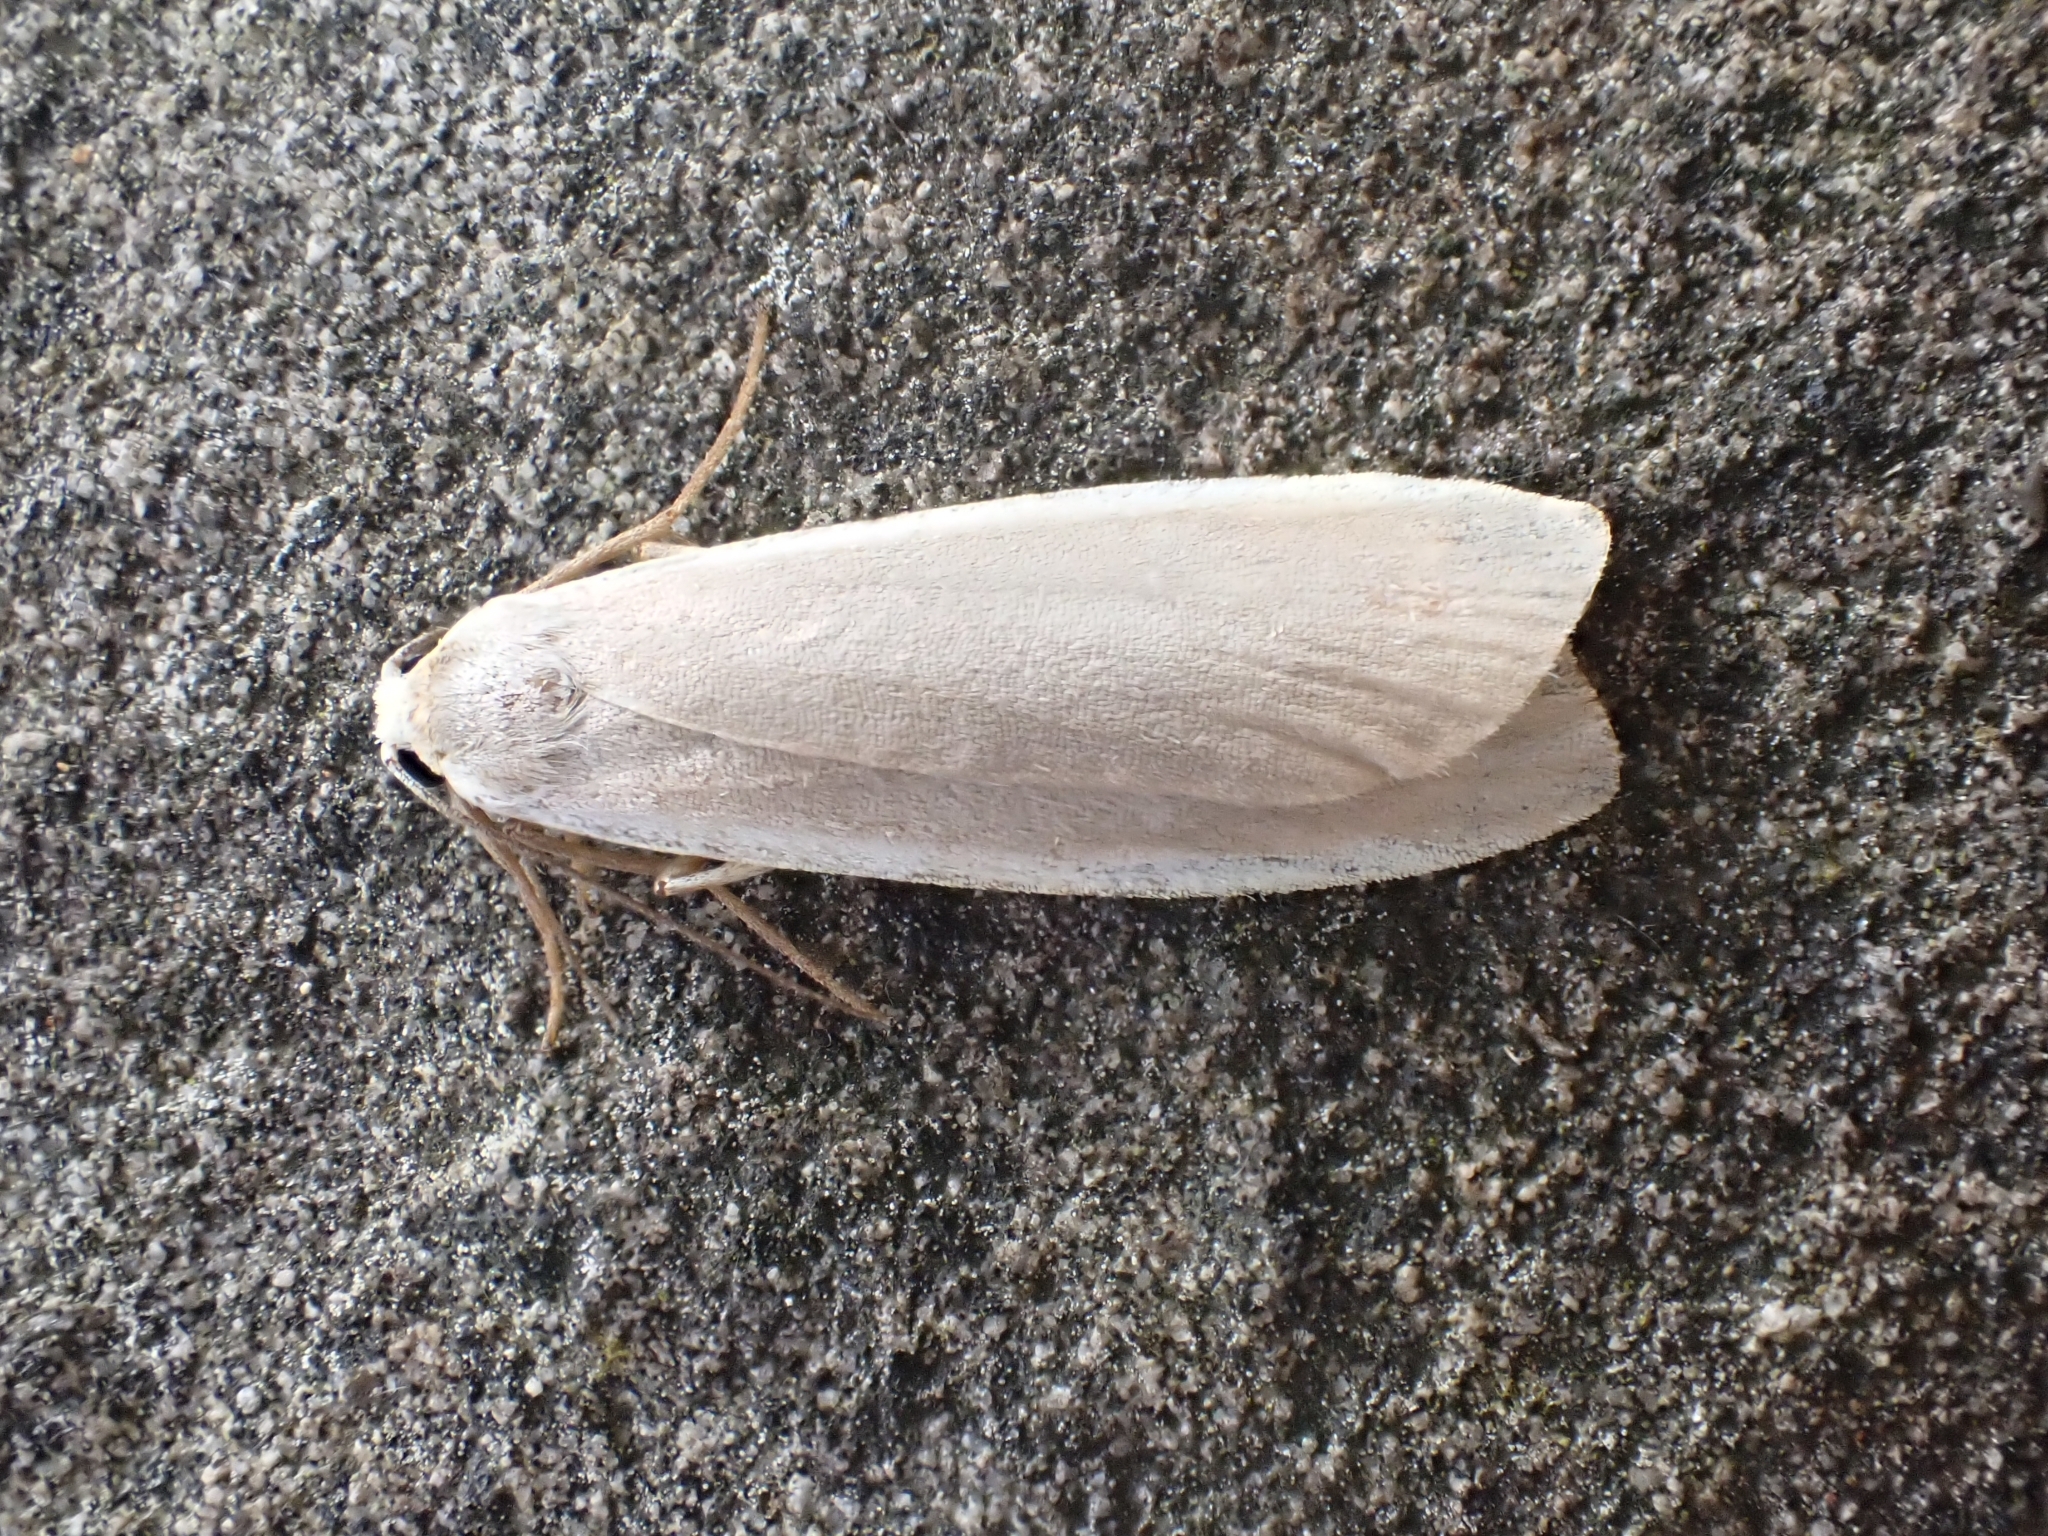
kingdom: Animalia
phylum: Arthropoda
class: Insecta
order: Lepidoptera
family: Erebidae
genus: Nyea
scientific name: Nyea lurideola
